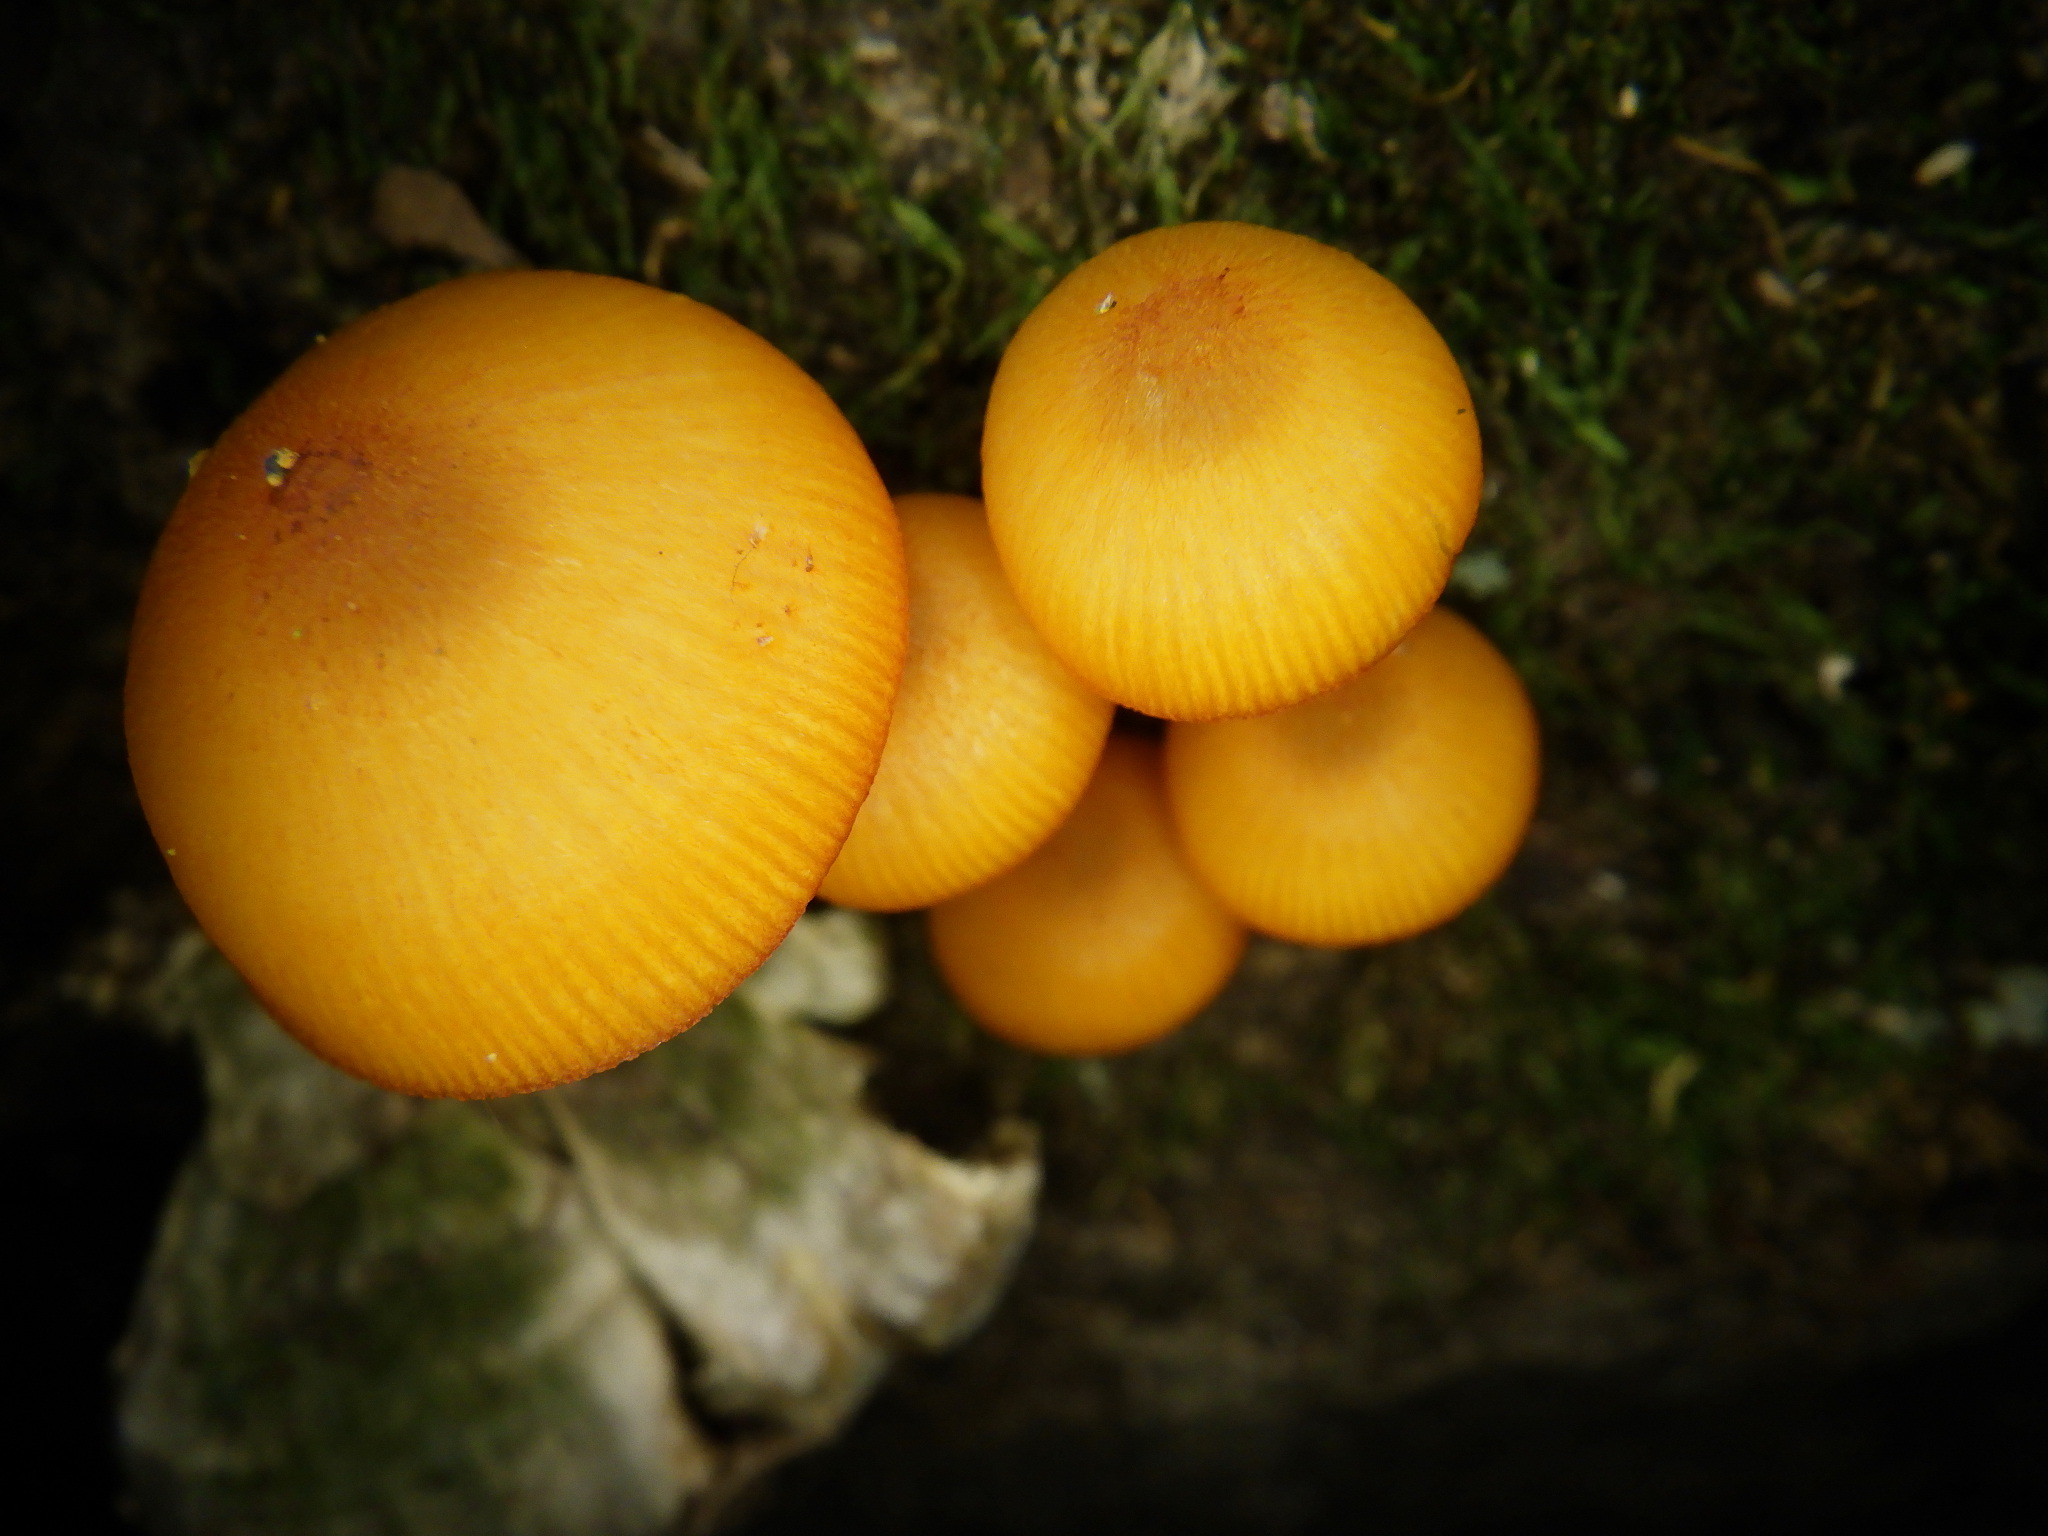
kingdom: Fungi
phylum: Basidiomycota
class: Agaricomycetes
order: Agaricales
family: Mycenaceae
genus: Mycena
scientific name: Mycena leaiana
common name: Orange mycena
